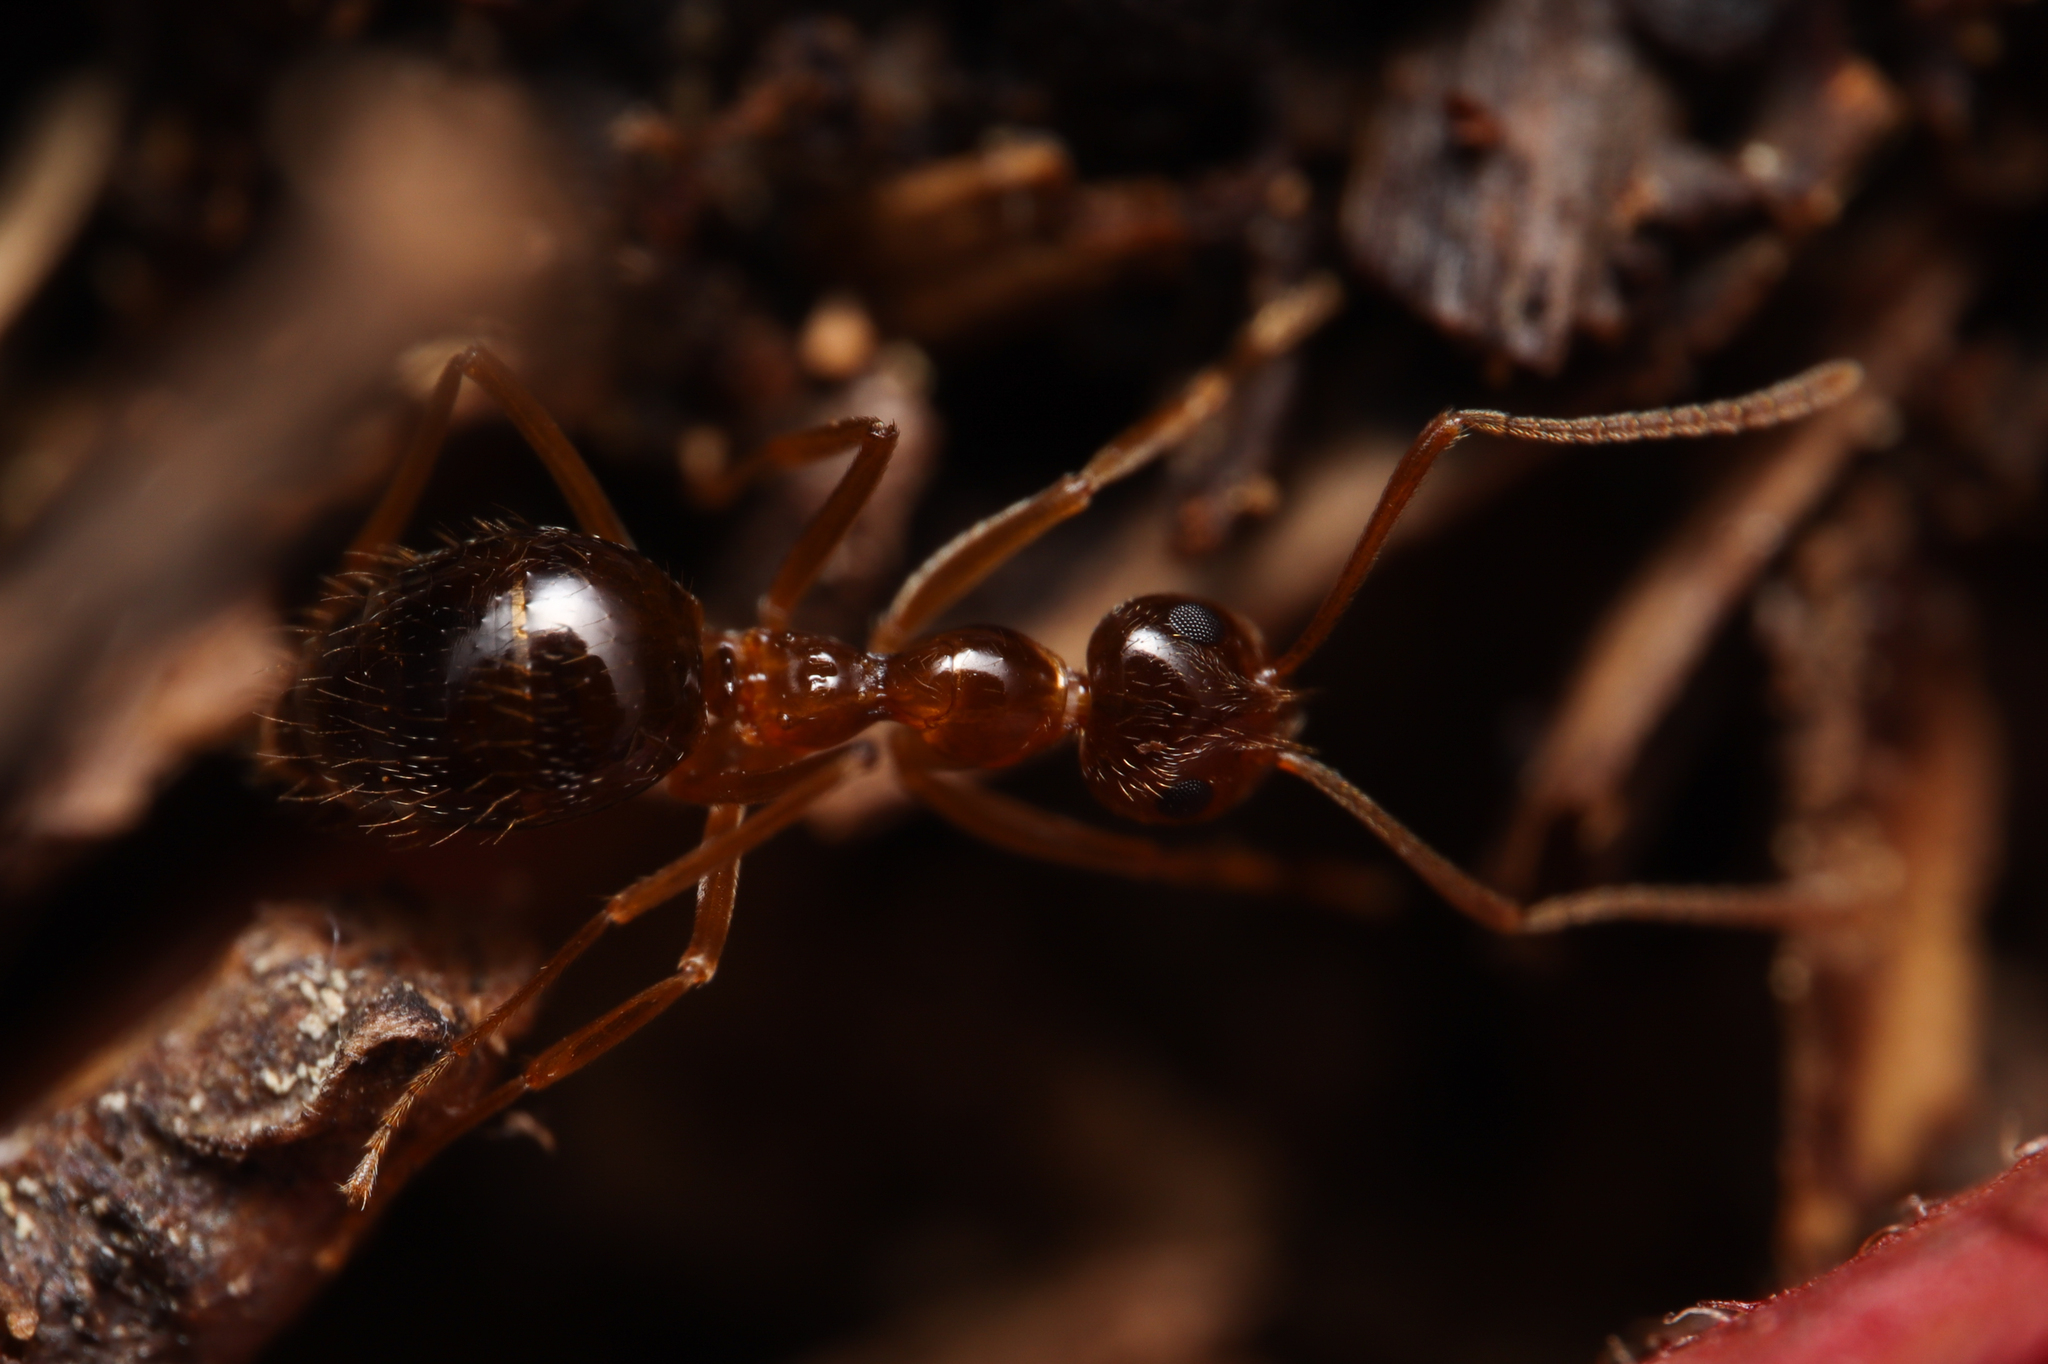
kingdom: Animalia
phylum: Arthropoda
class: Insecta
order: Hymenoptera
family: Formicidae
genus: Prenolepis
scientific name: Prenolepis imparis
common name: Small honey ant
